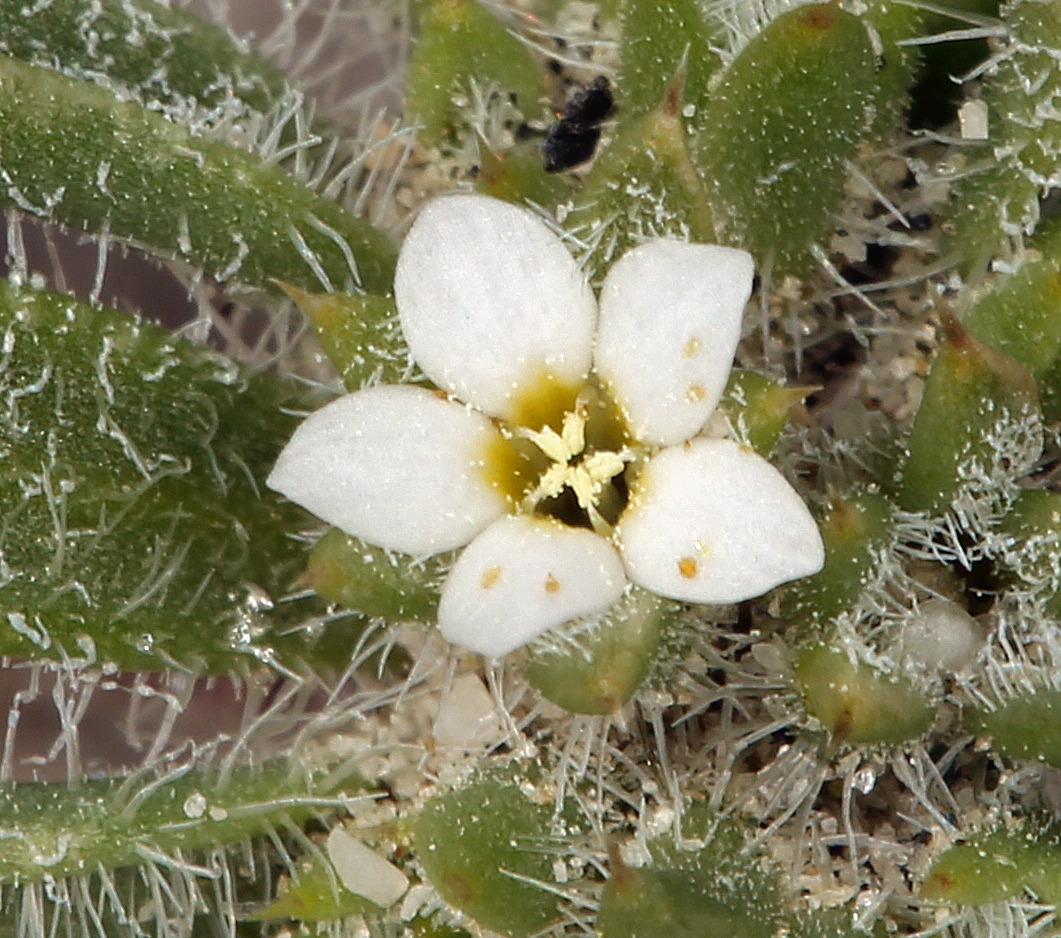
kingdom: Plantae
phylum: Tracheophyta
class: Magnoliopsida
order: Ericales
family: Polemoniaceae
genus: Ipomopsis
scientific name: Ipomopsis polycladon
